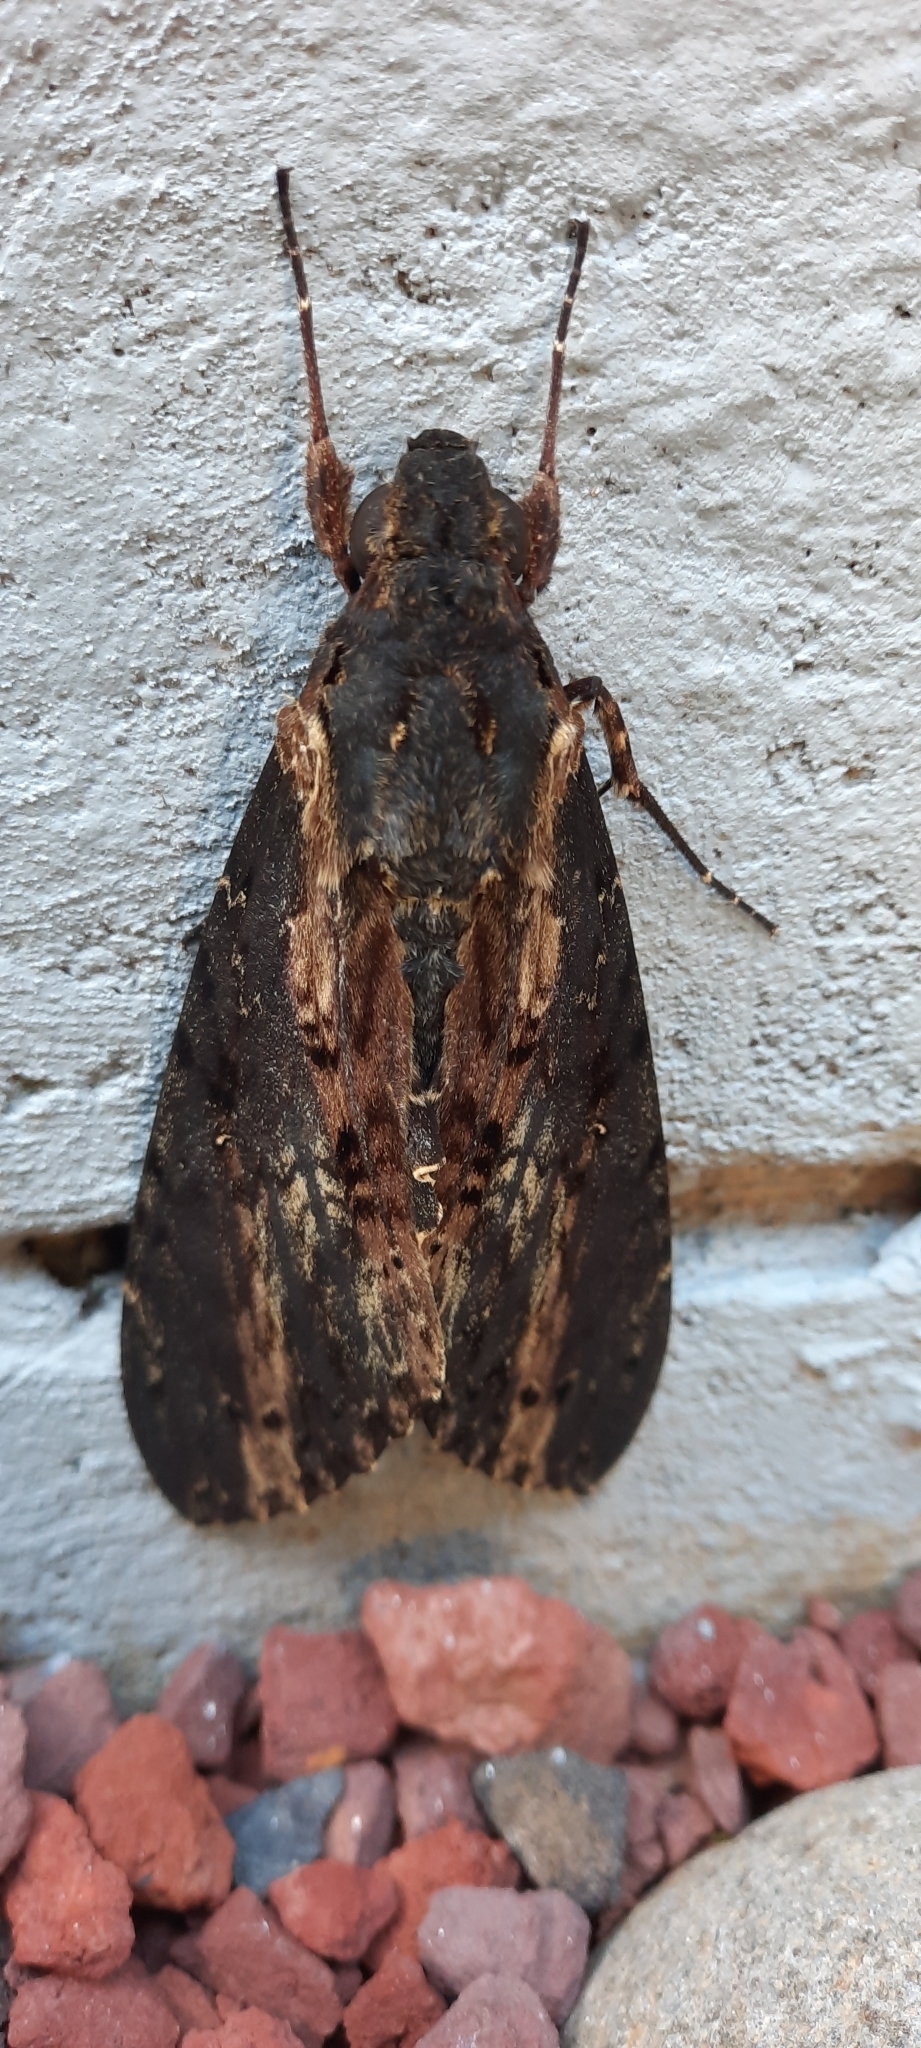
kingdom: Animalia
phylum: Arthropoda
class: Insecta
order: Lepidoptera
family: Sphingidae
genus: Neococytius
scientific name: Neococytius cluentius
